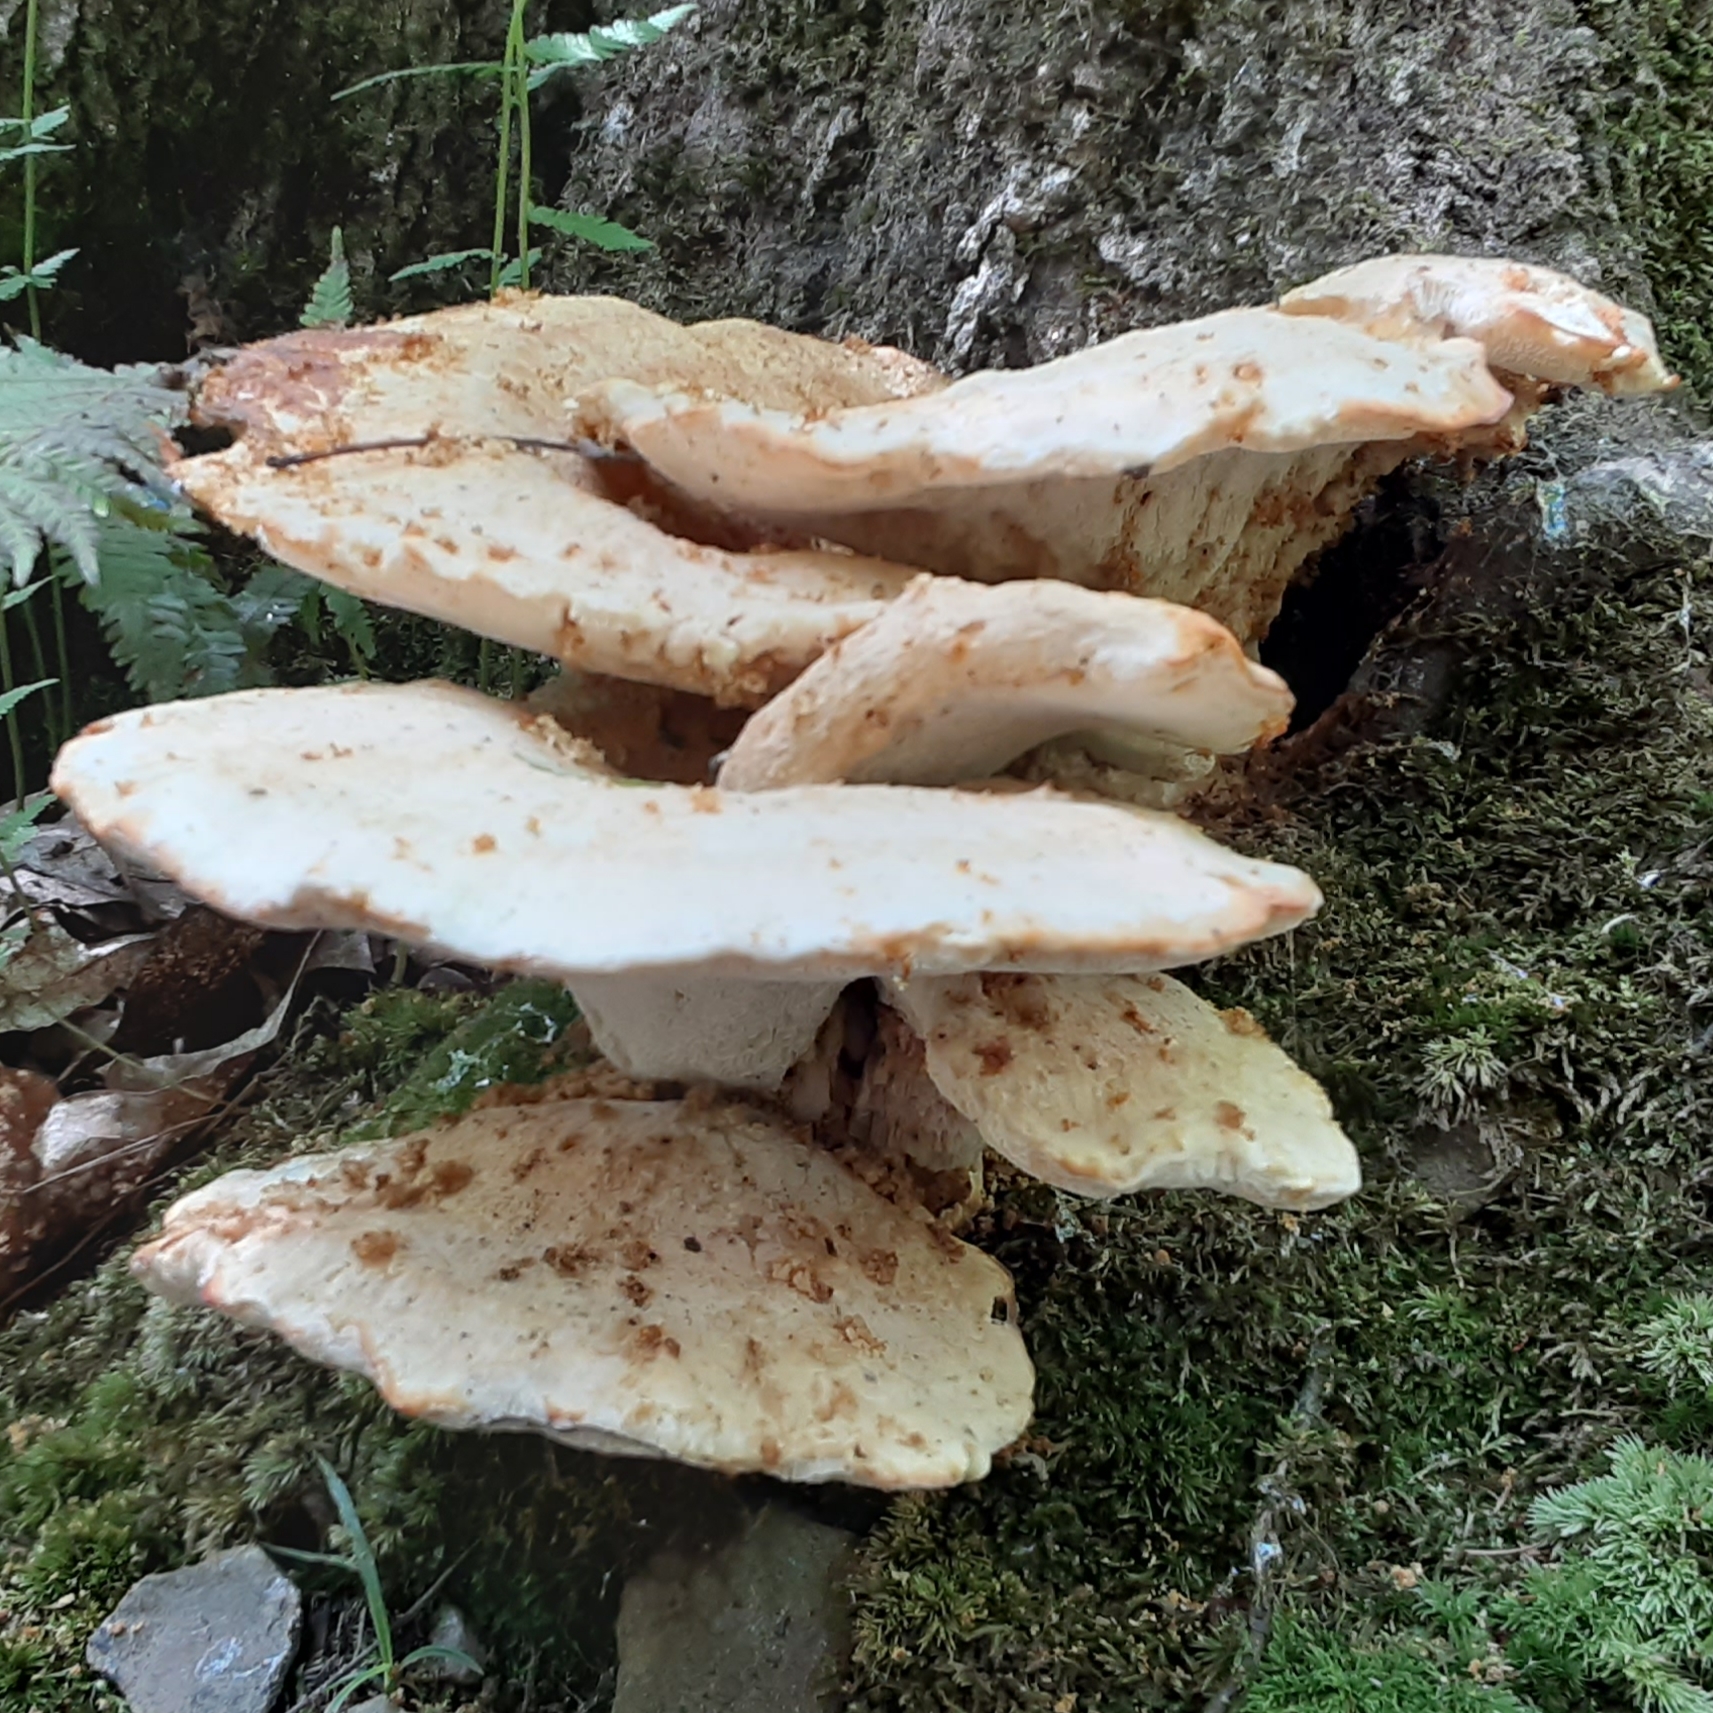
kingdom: Fungi
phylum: Basidiomycota
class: Agaricomycetes
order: Polyporales
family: Polyporaceae
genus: Cerioporus
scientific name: Cerioporus squamosus
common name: Dryad's saddle
